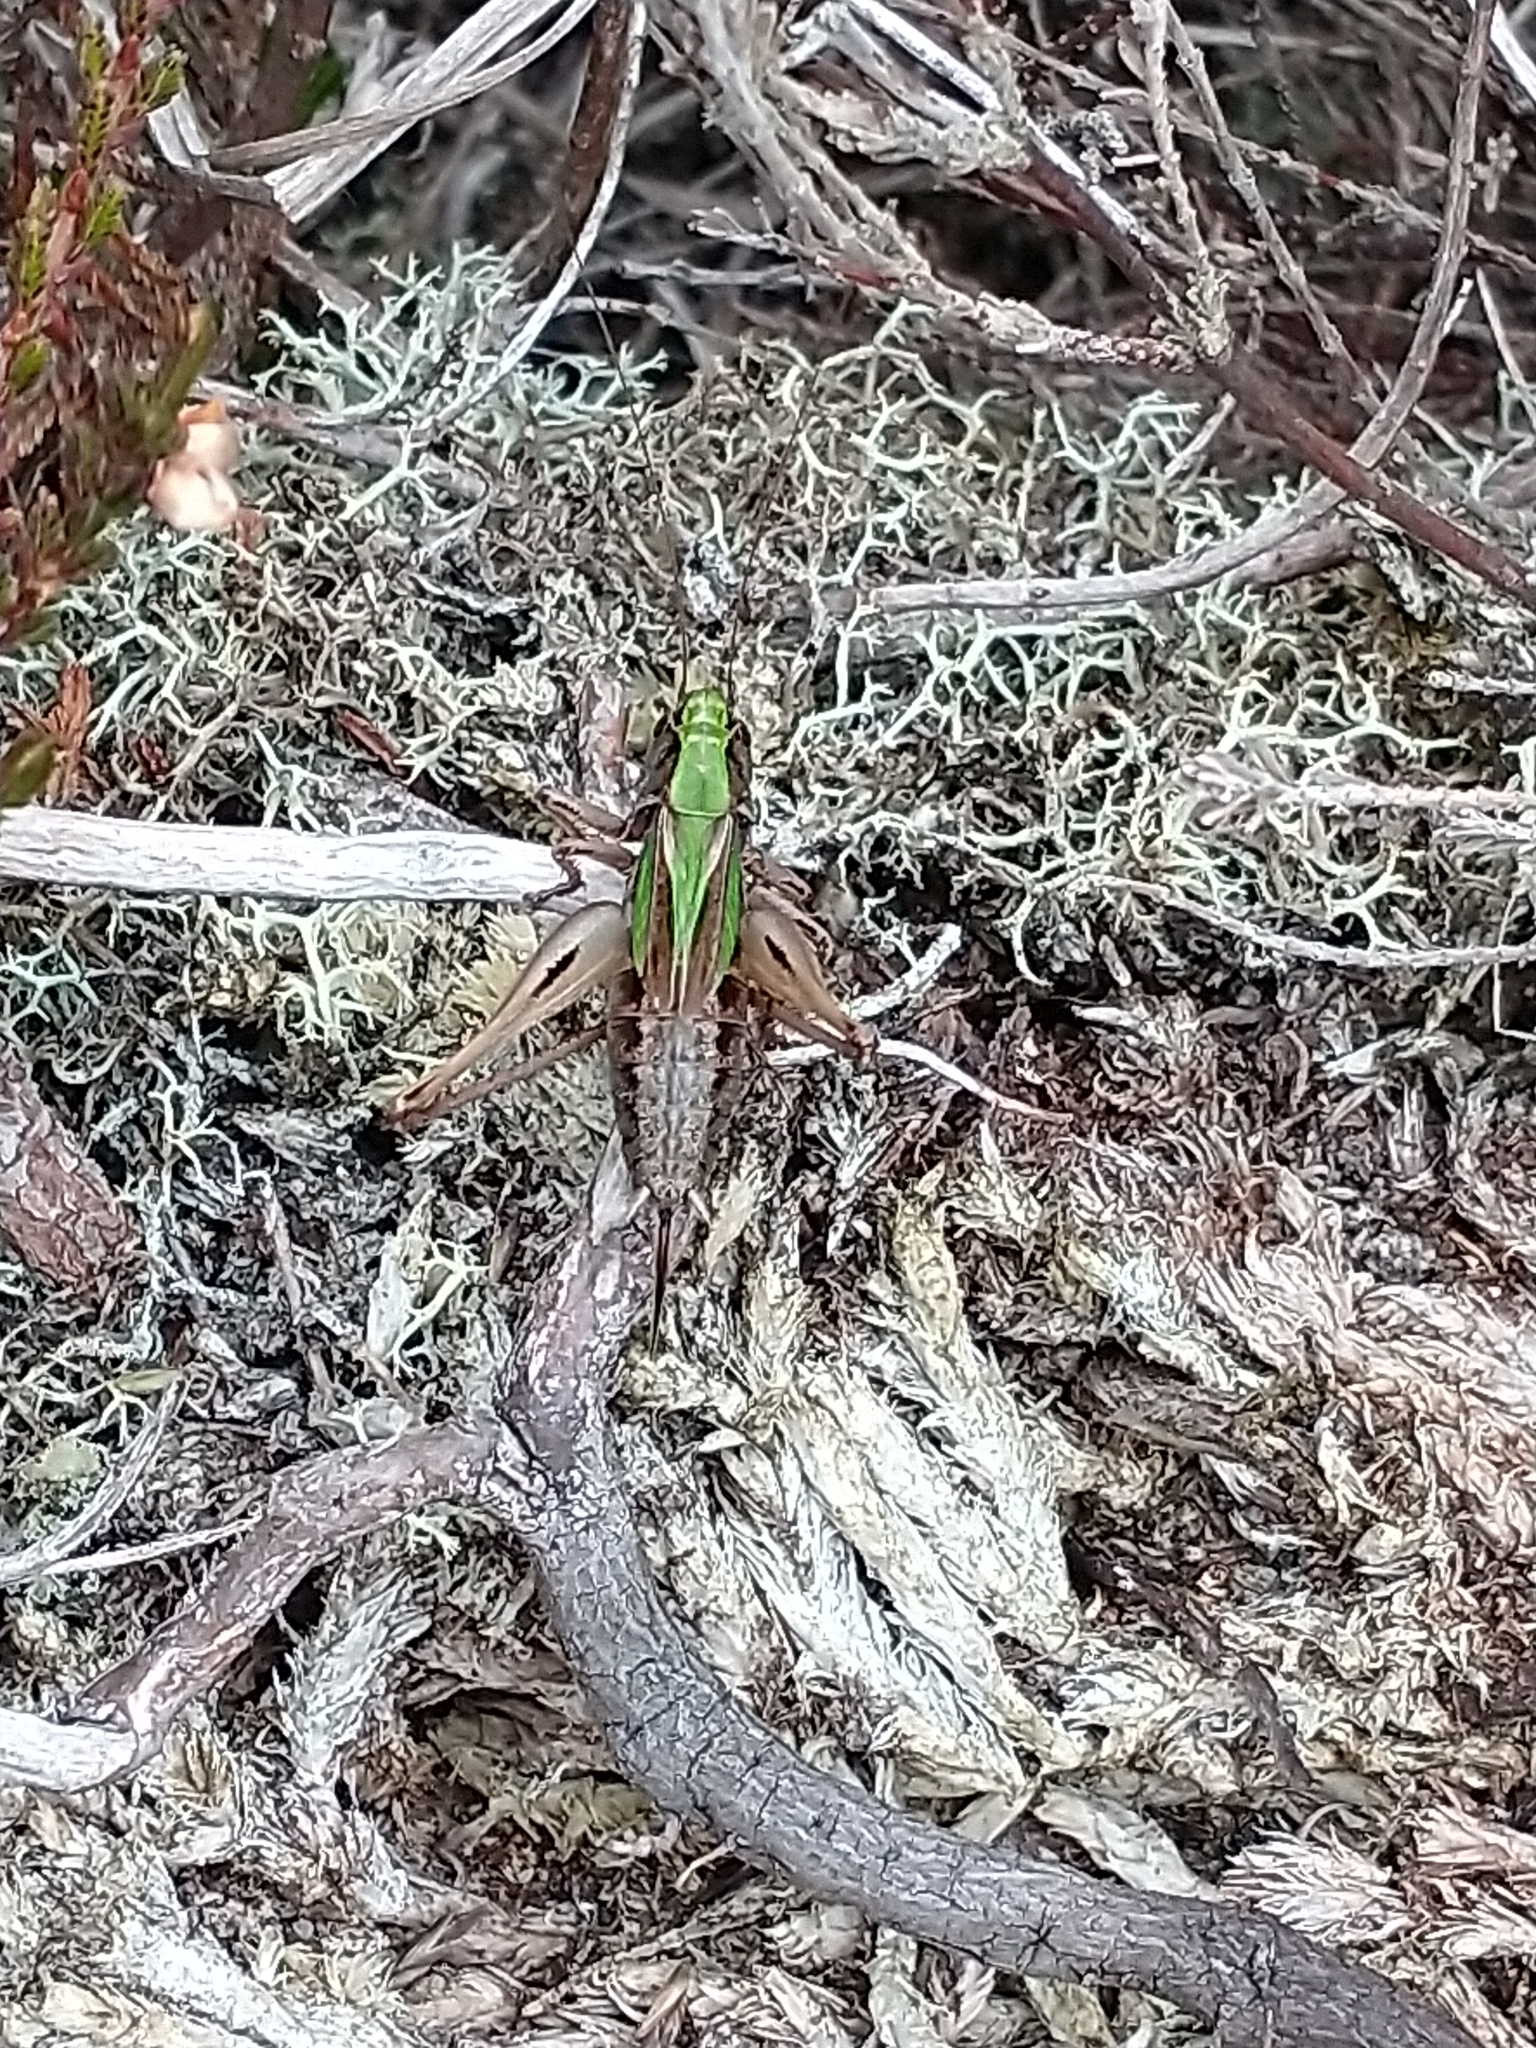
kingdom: Animalia
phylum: Arthropoda
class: Insecta
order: Orthoptera
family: Tettigoniidae
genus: Metrioptera
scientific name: Metrioptera brachyptera
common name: Bog bush-cricket
